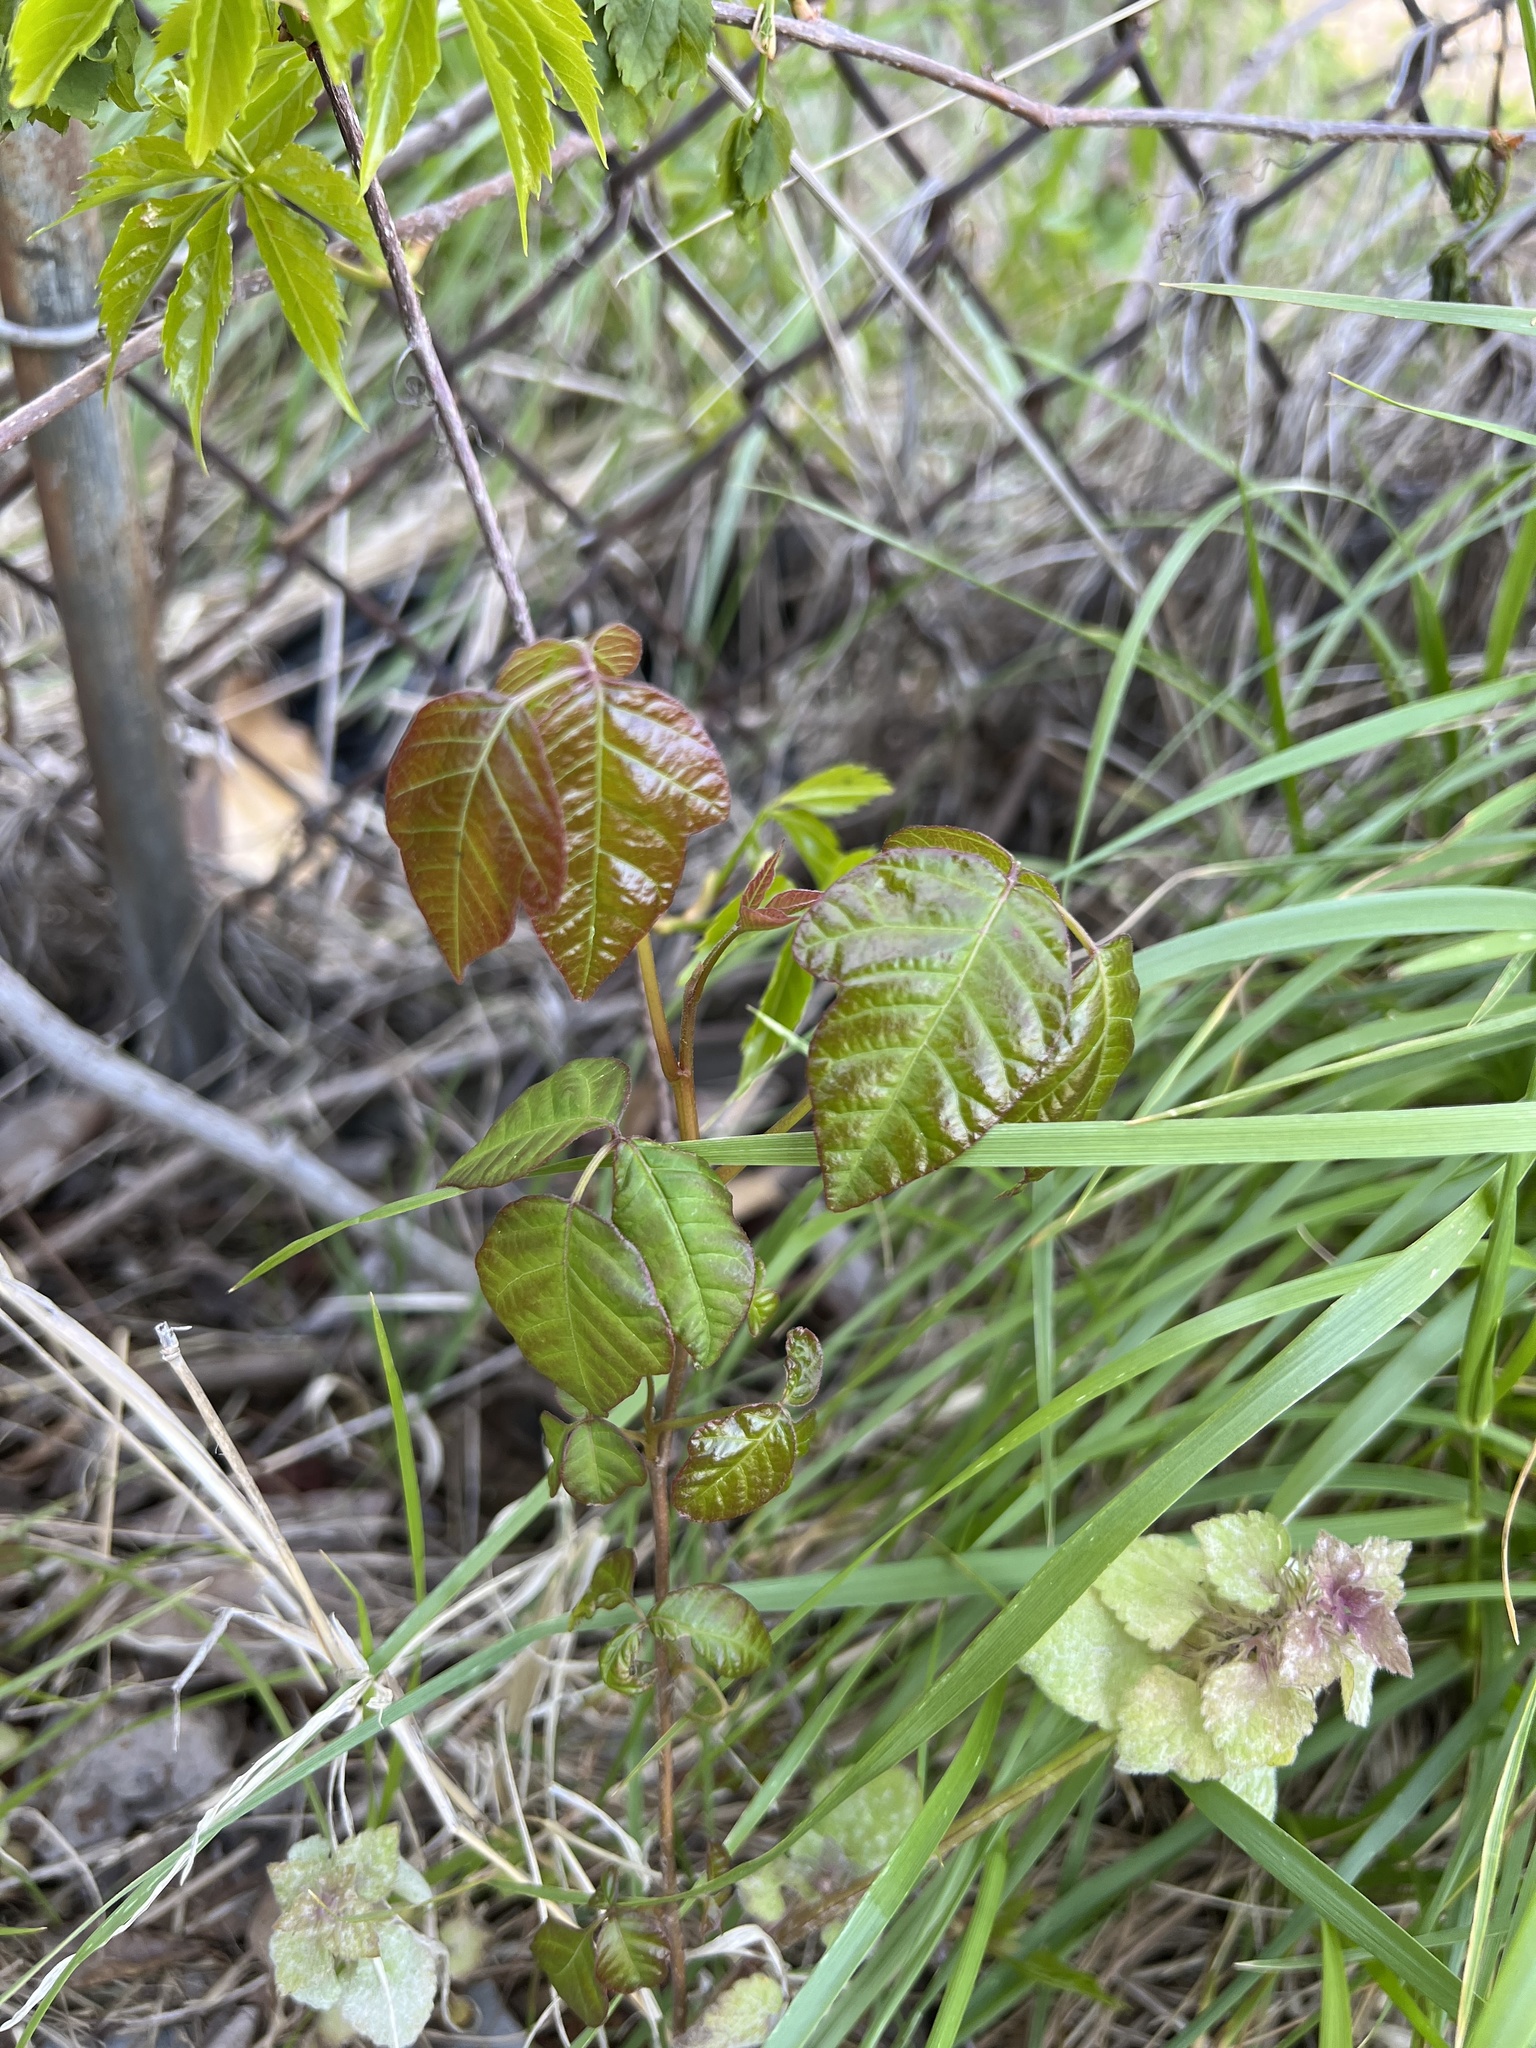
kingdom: Plantae
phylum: Tracheophyta
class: Magnoliopsida
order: Sapindales
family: Anacardiaceae
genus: Toxicodendron
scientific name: Toxicodendron radicans
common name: Poison ivy
